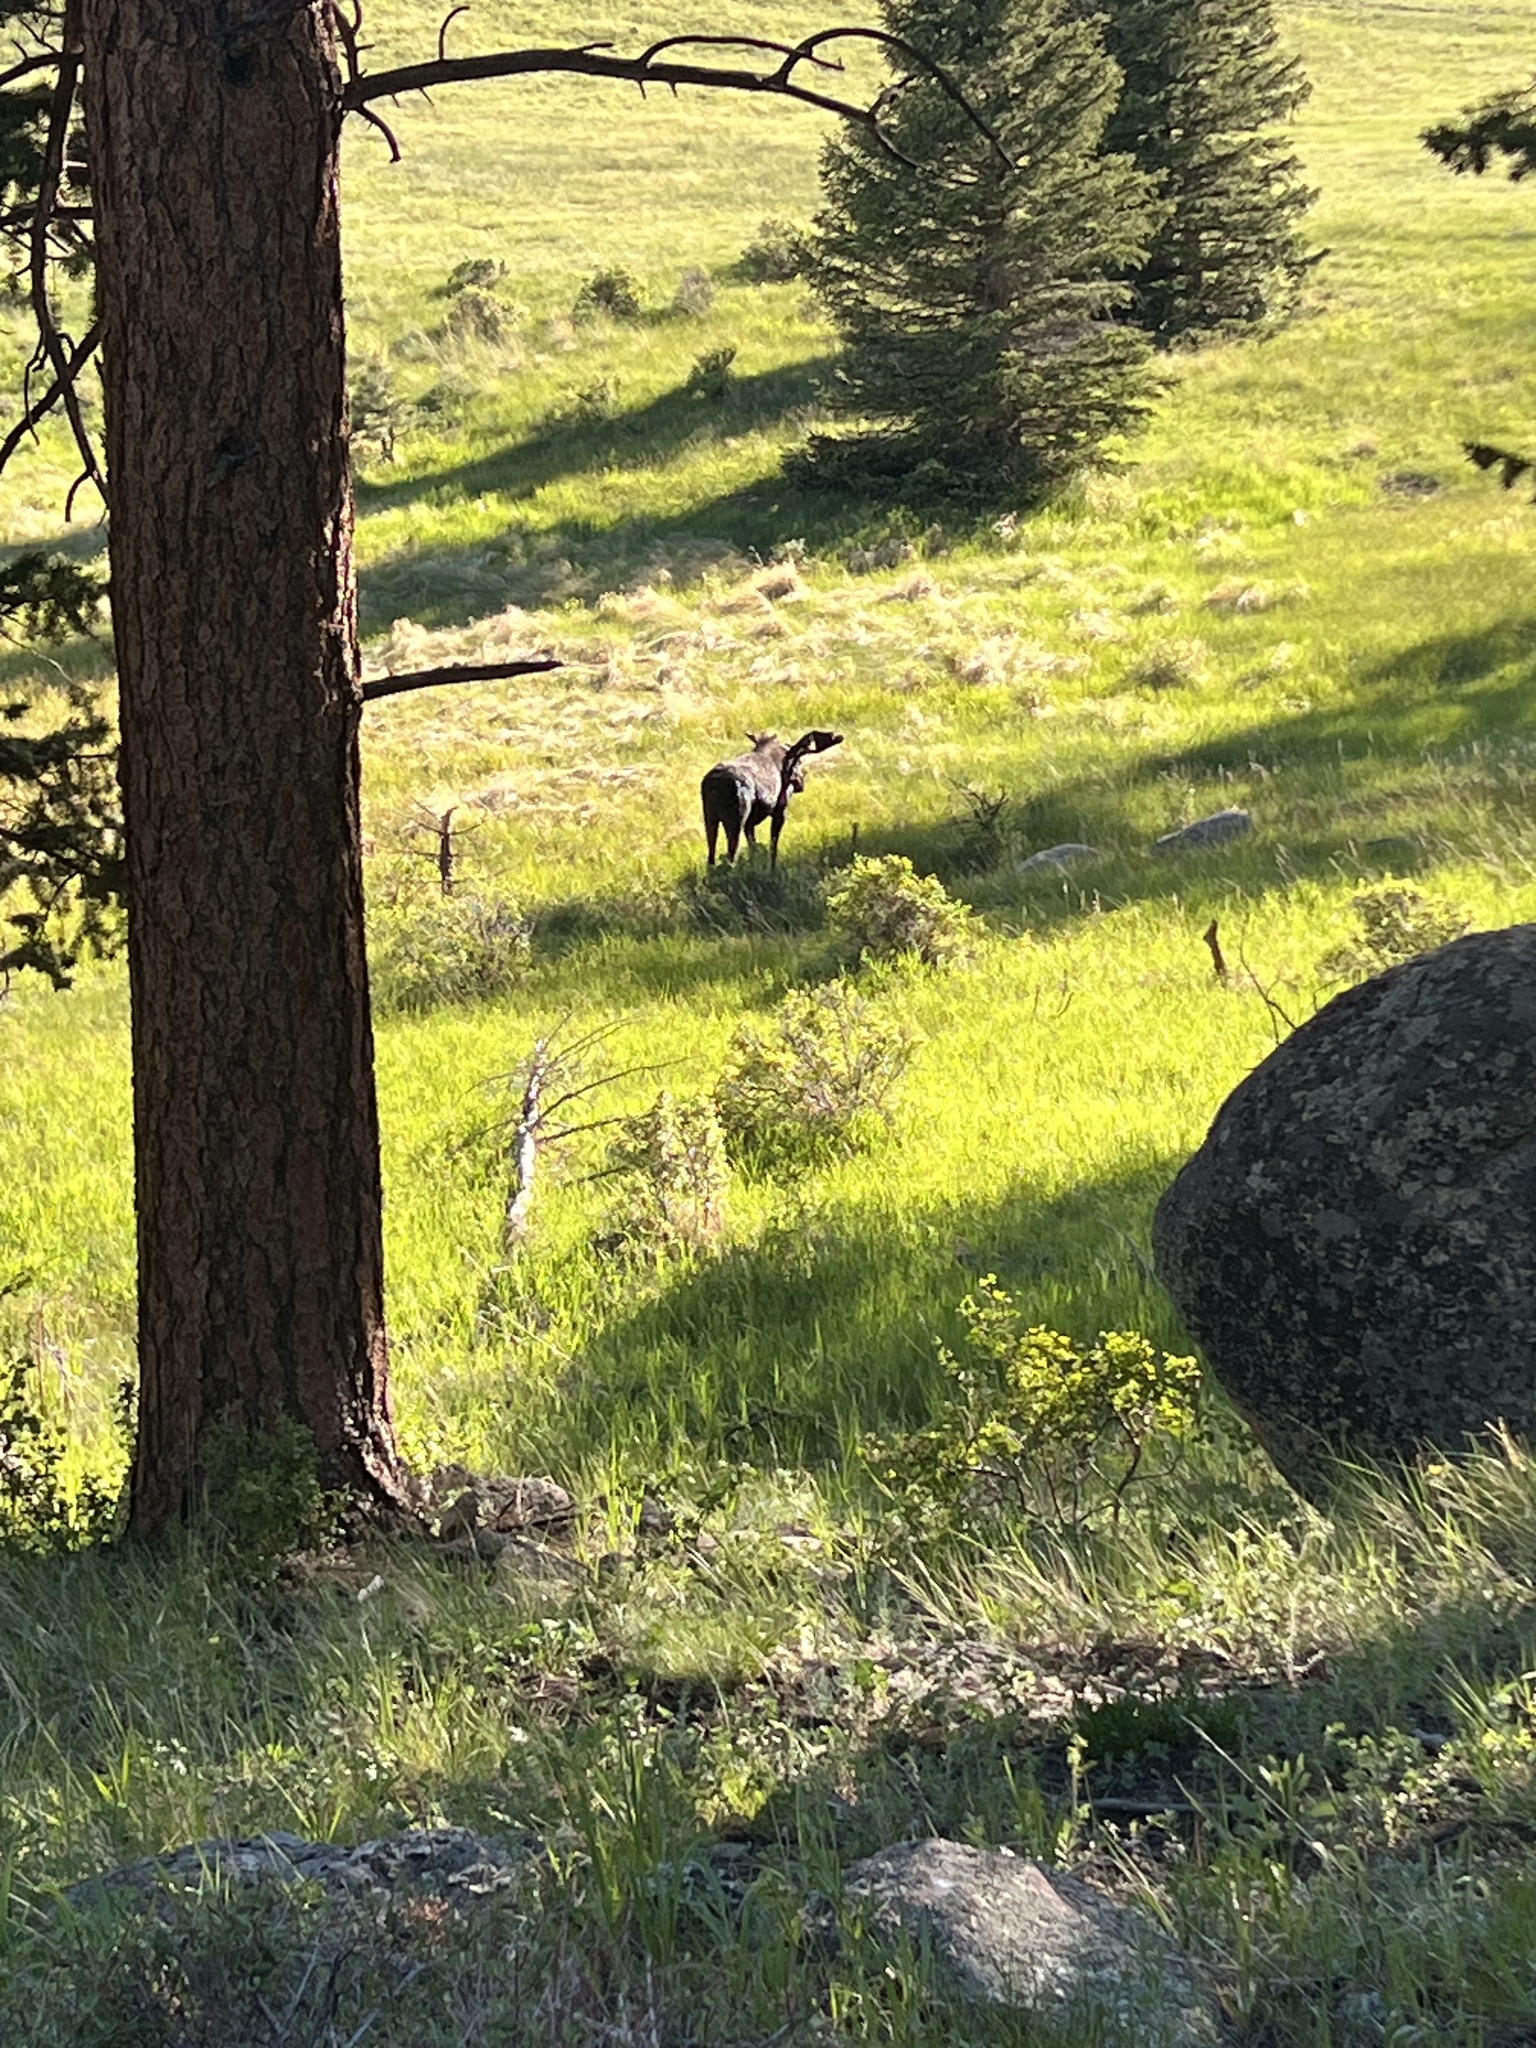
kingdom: Animalia
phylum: Chordata
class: Mammalia
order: Artiodactyla
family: Cervidae
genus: Alces
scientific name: Alces alces
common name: Moose
